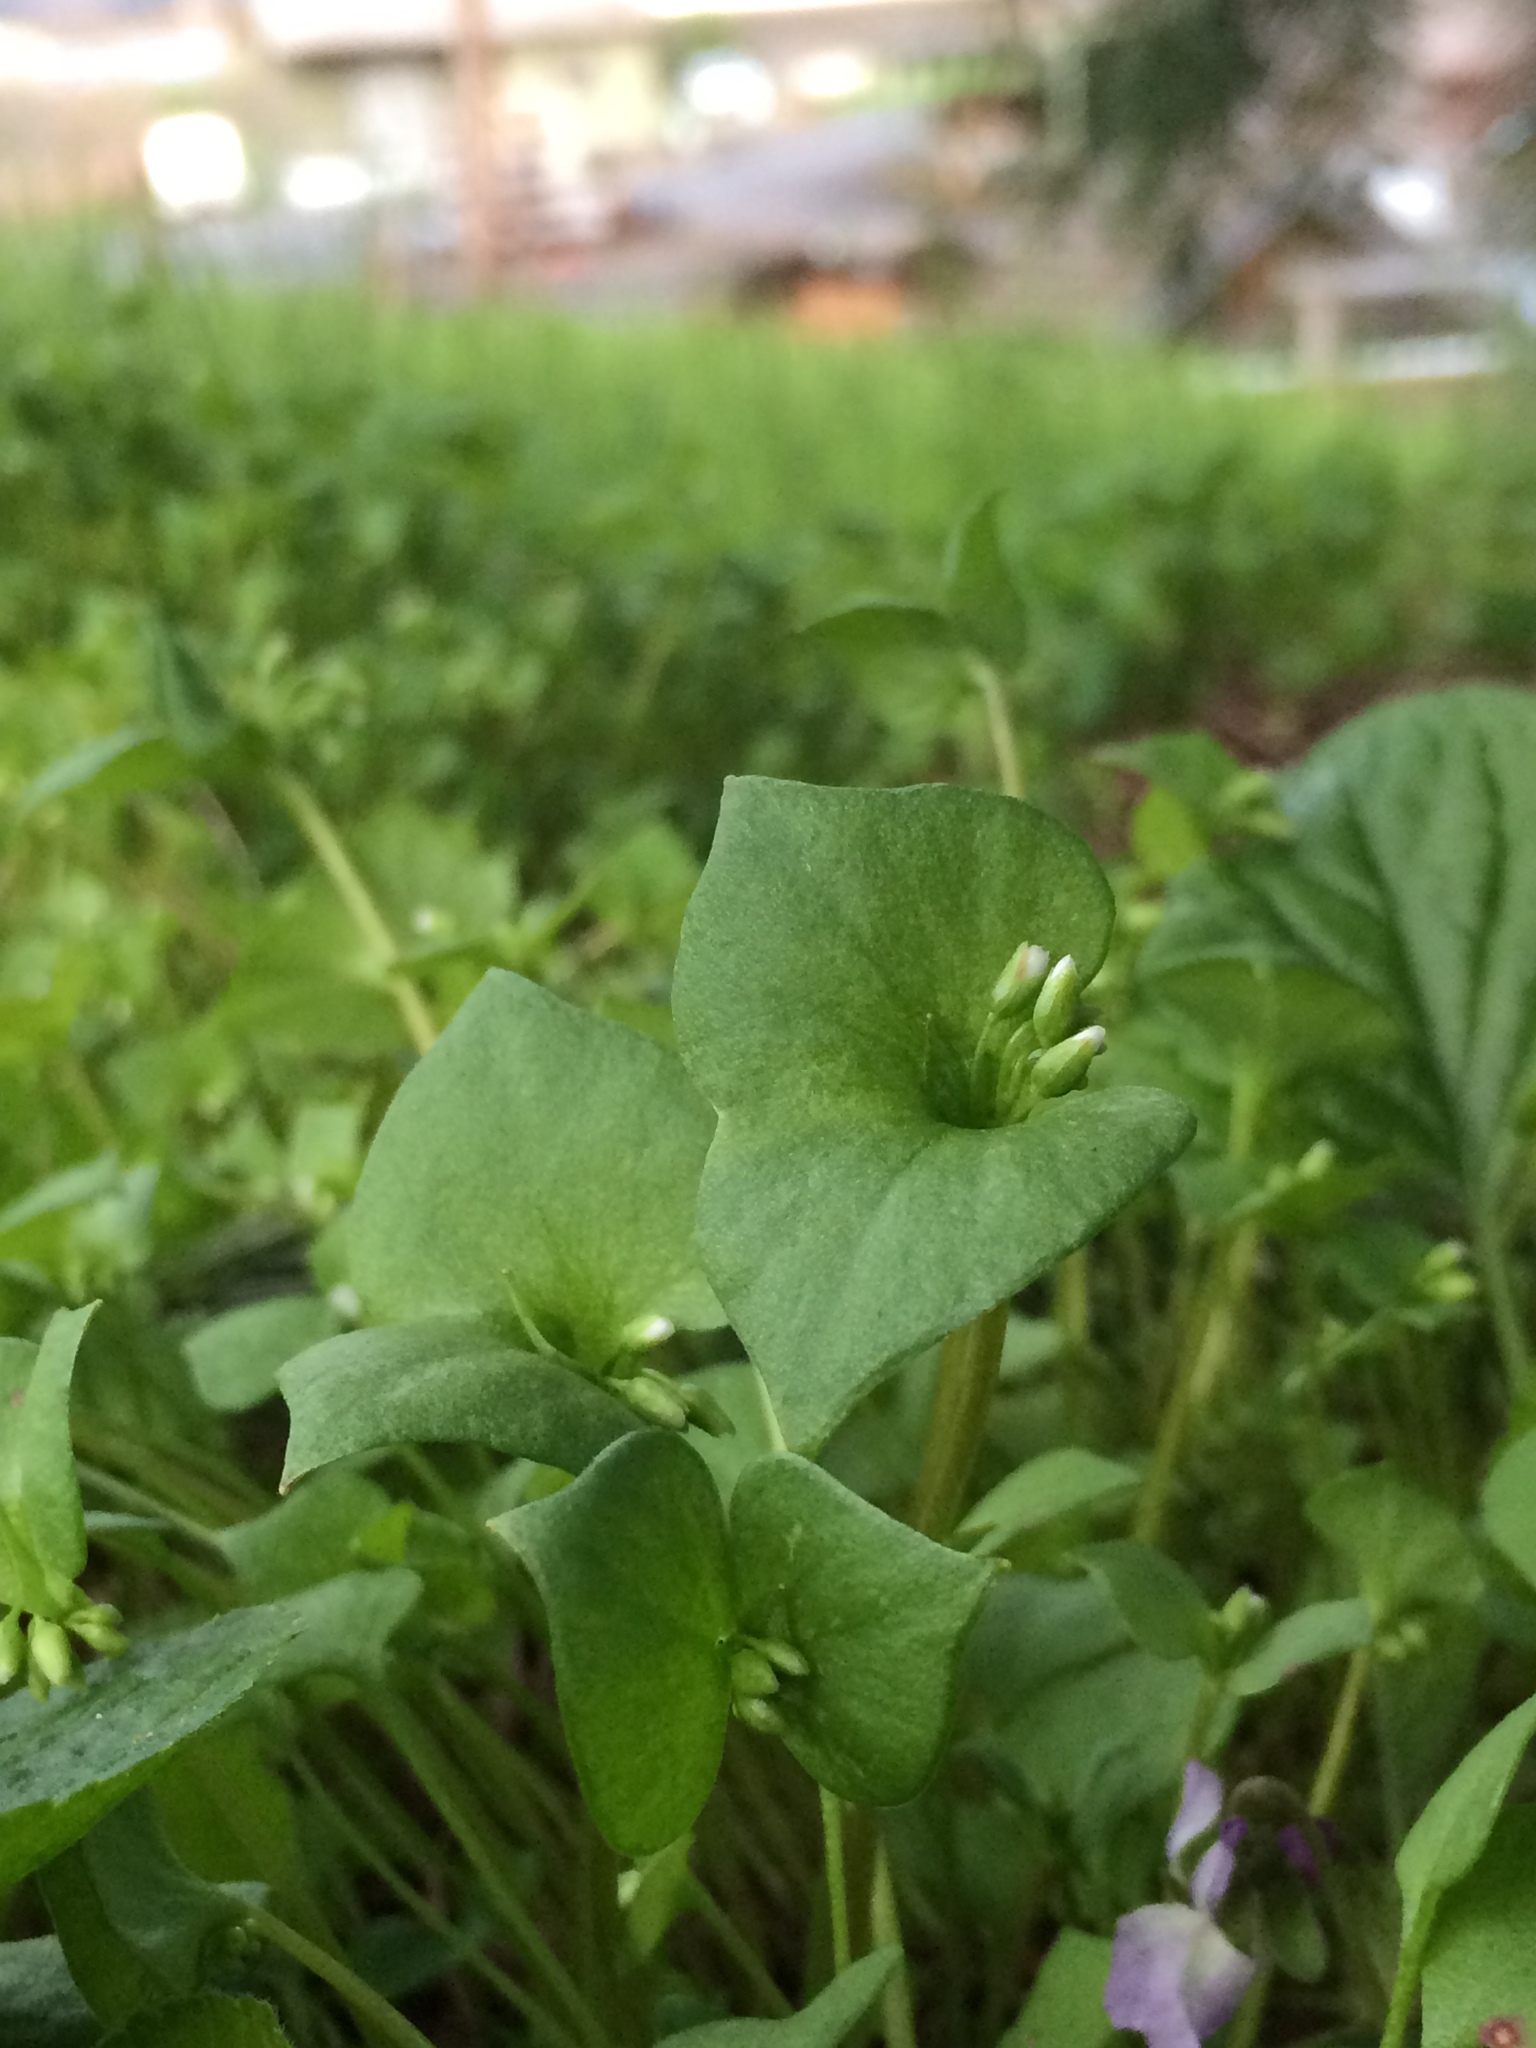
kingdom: Plantae
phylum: Tracheophyta
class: Magnoliopsida
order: Caryophyllales
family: Montiaceae
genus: Claytonia
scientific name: Claytonia perfoliata
